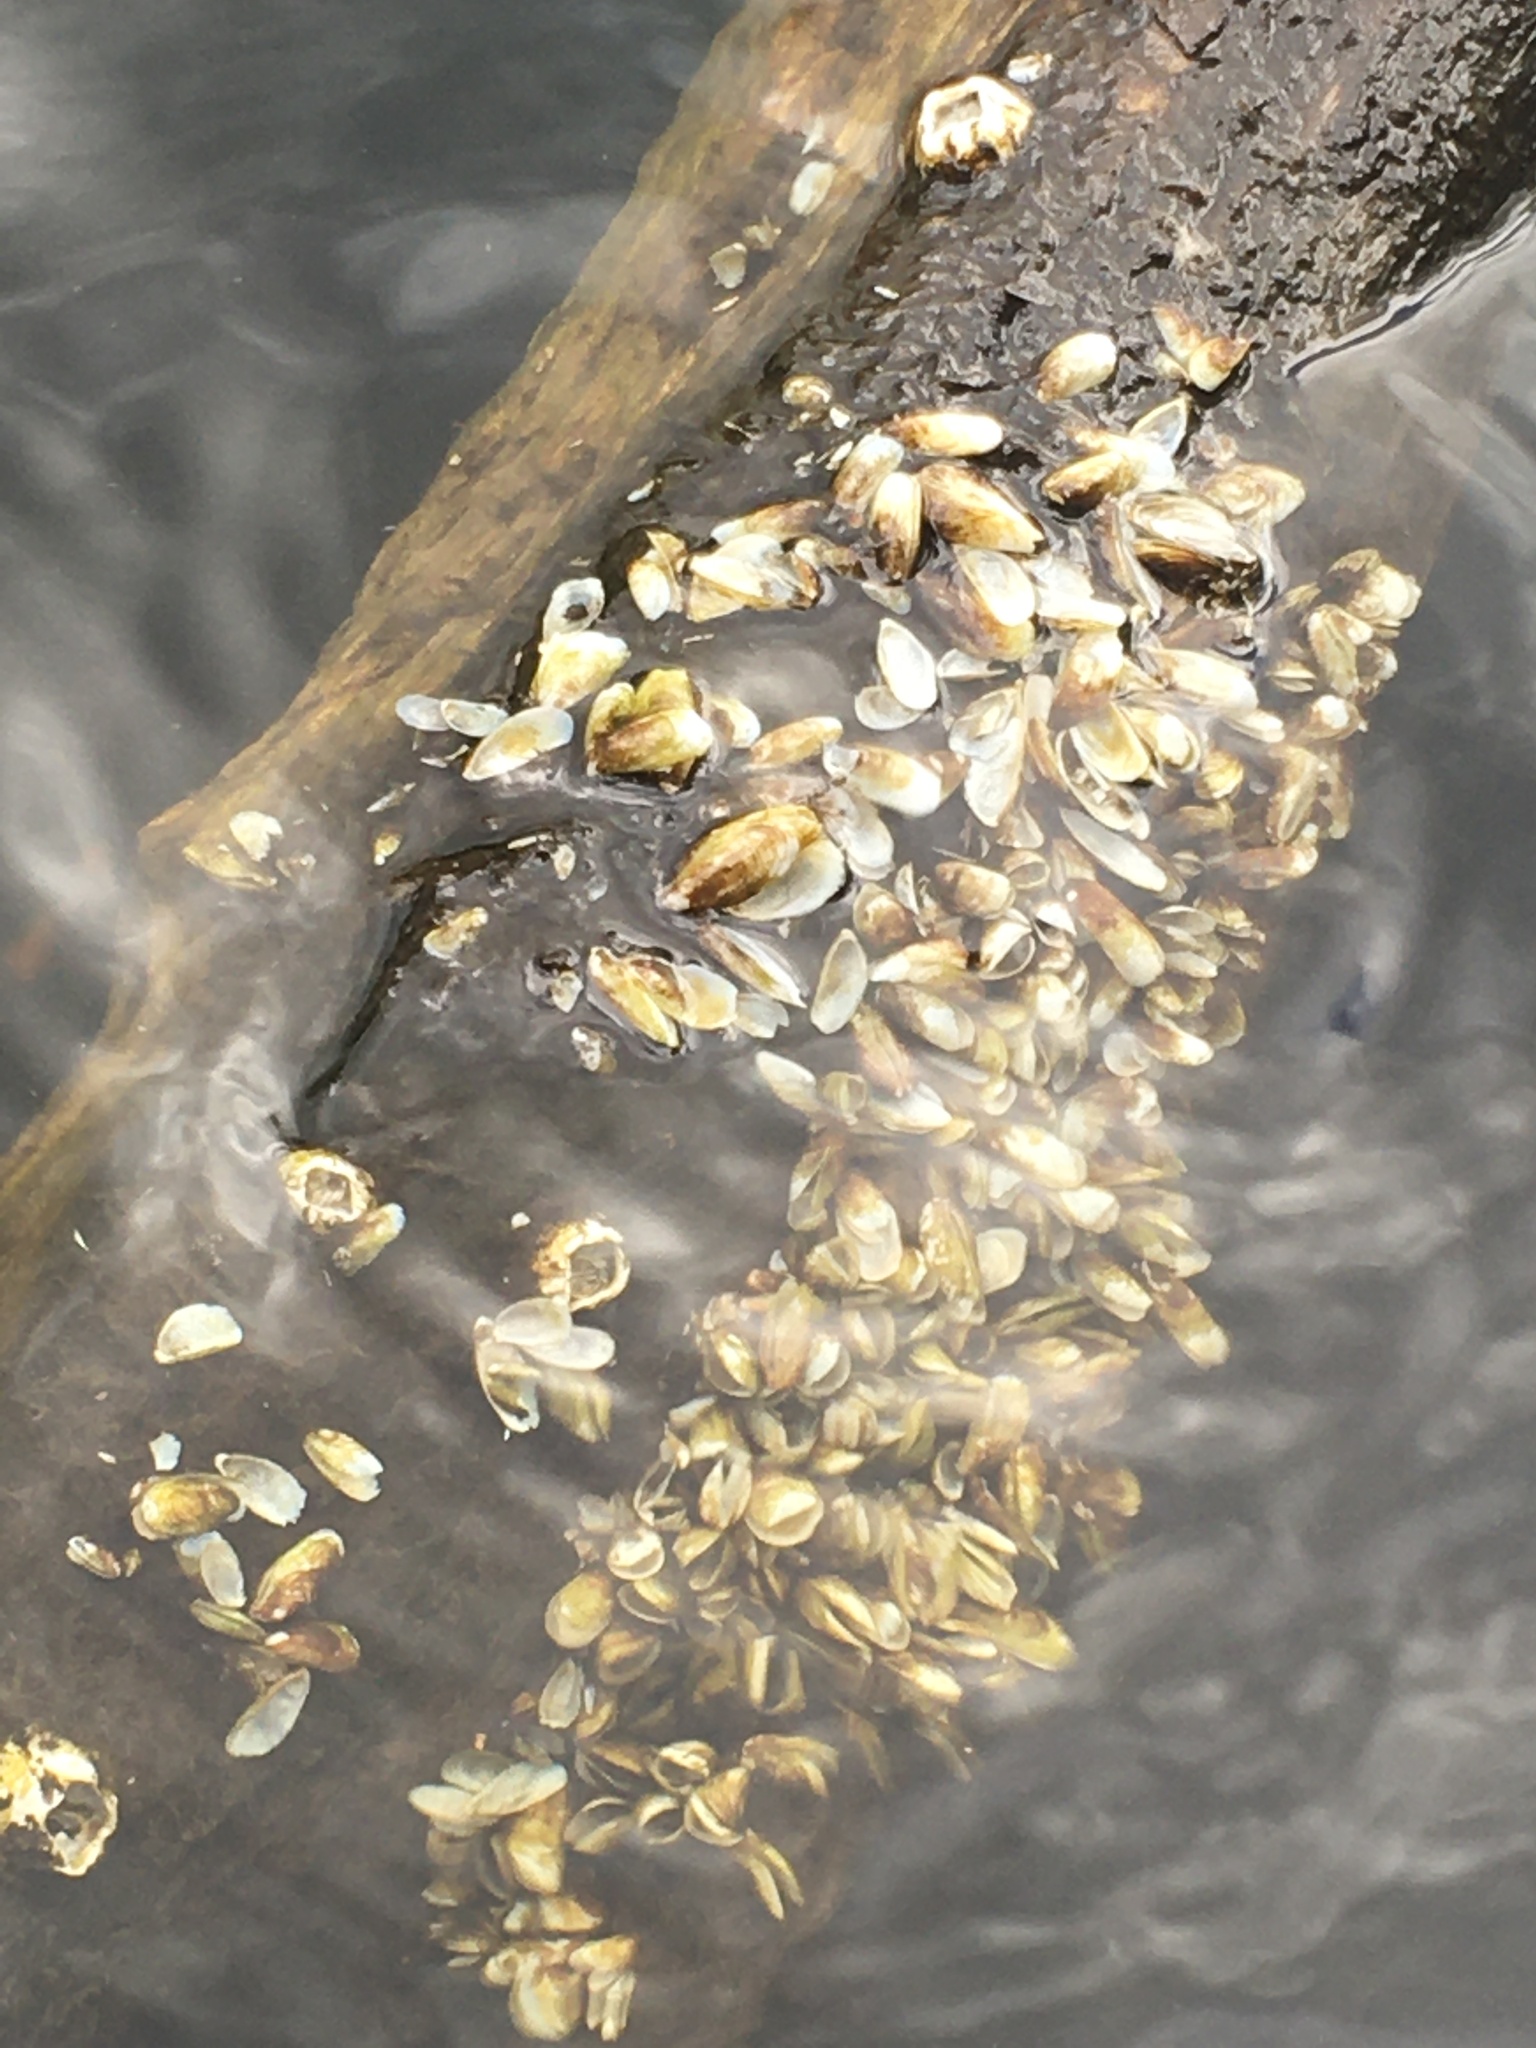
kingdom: Animalia
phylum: Mollusca
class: Bivalvia
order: Myida
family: Dreissenidae
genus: Mytilopsis
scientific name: Mytilopsis leucophaeata
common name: Conrad's false mussel
